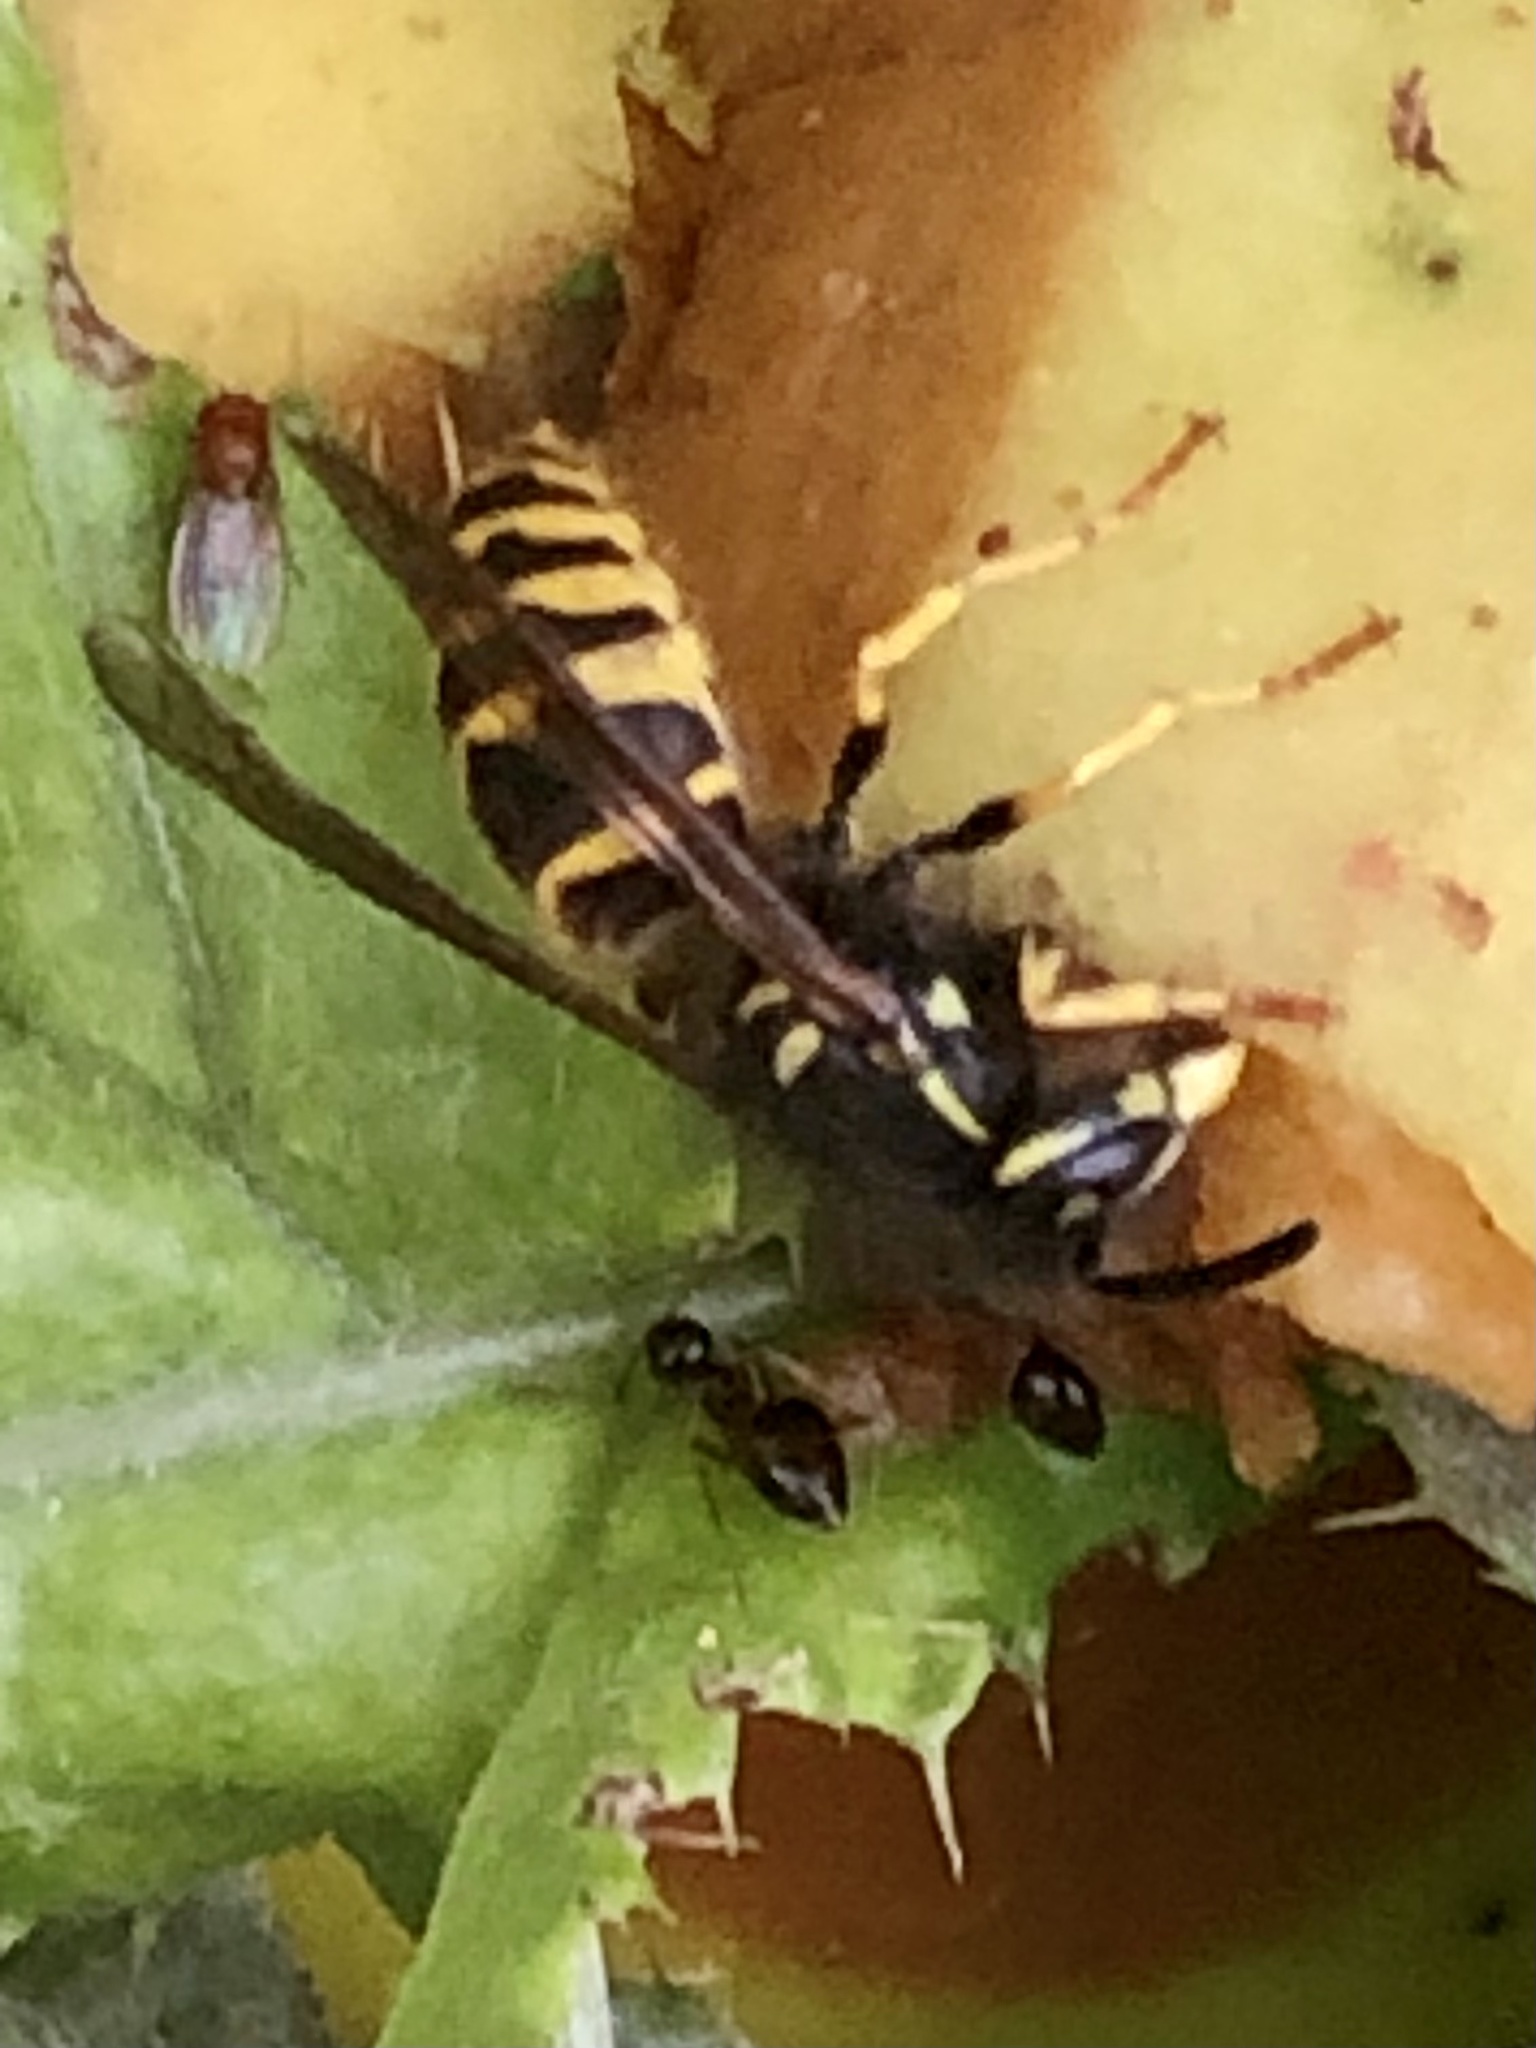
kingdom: Animalia
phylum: Arthropoda
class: Insecta
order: Hymenoptera
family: Vespidae
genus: Vespula
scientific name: Vespula alascensis
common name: Alaska yellowjacket
